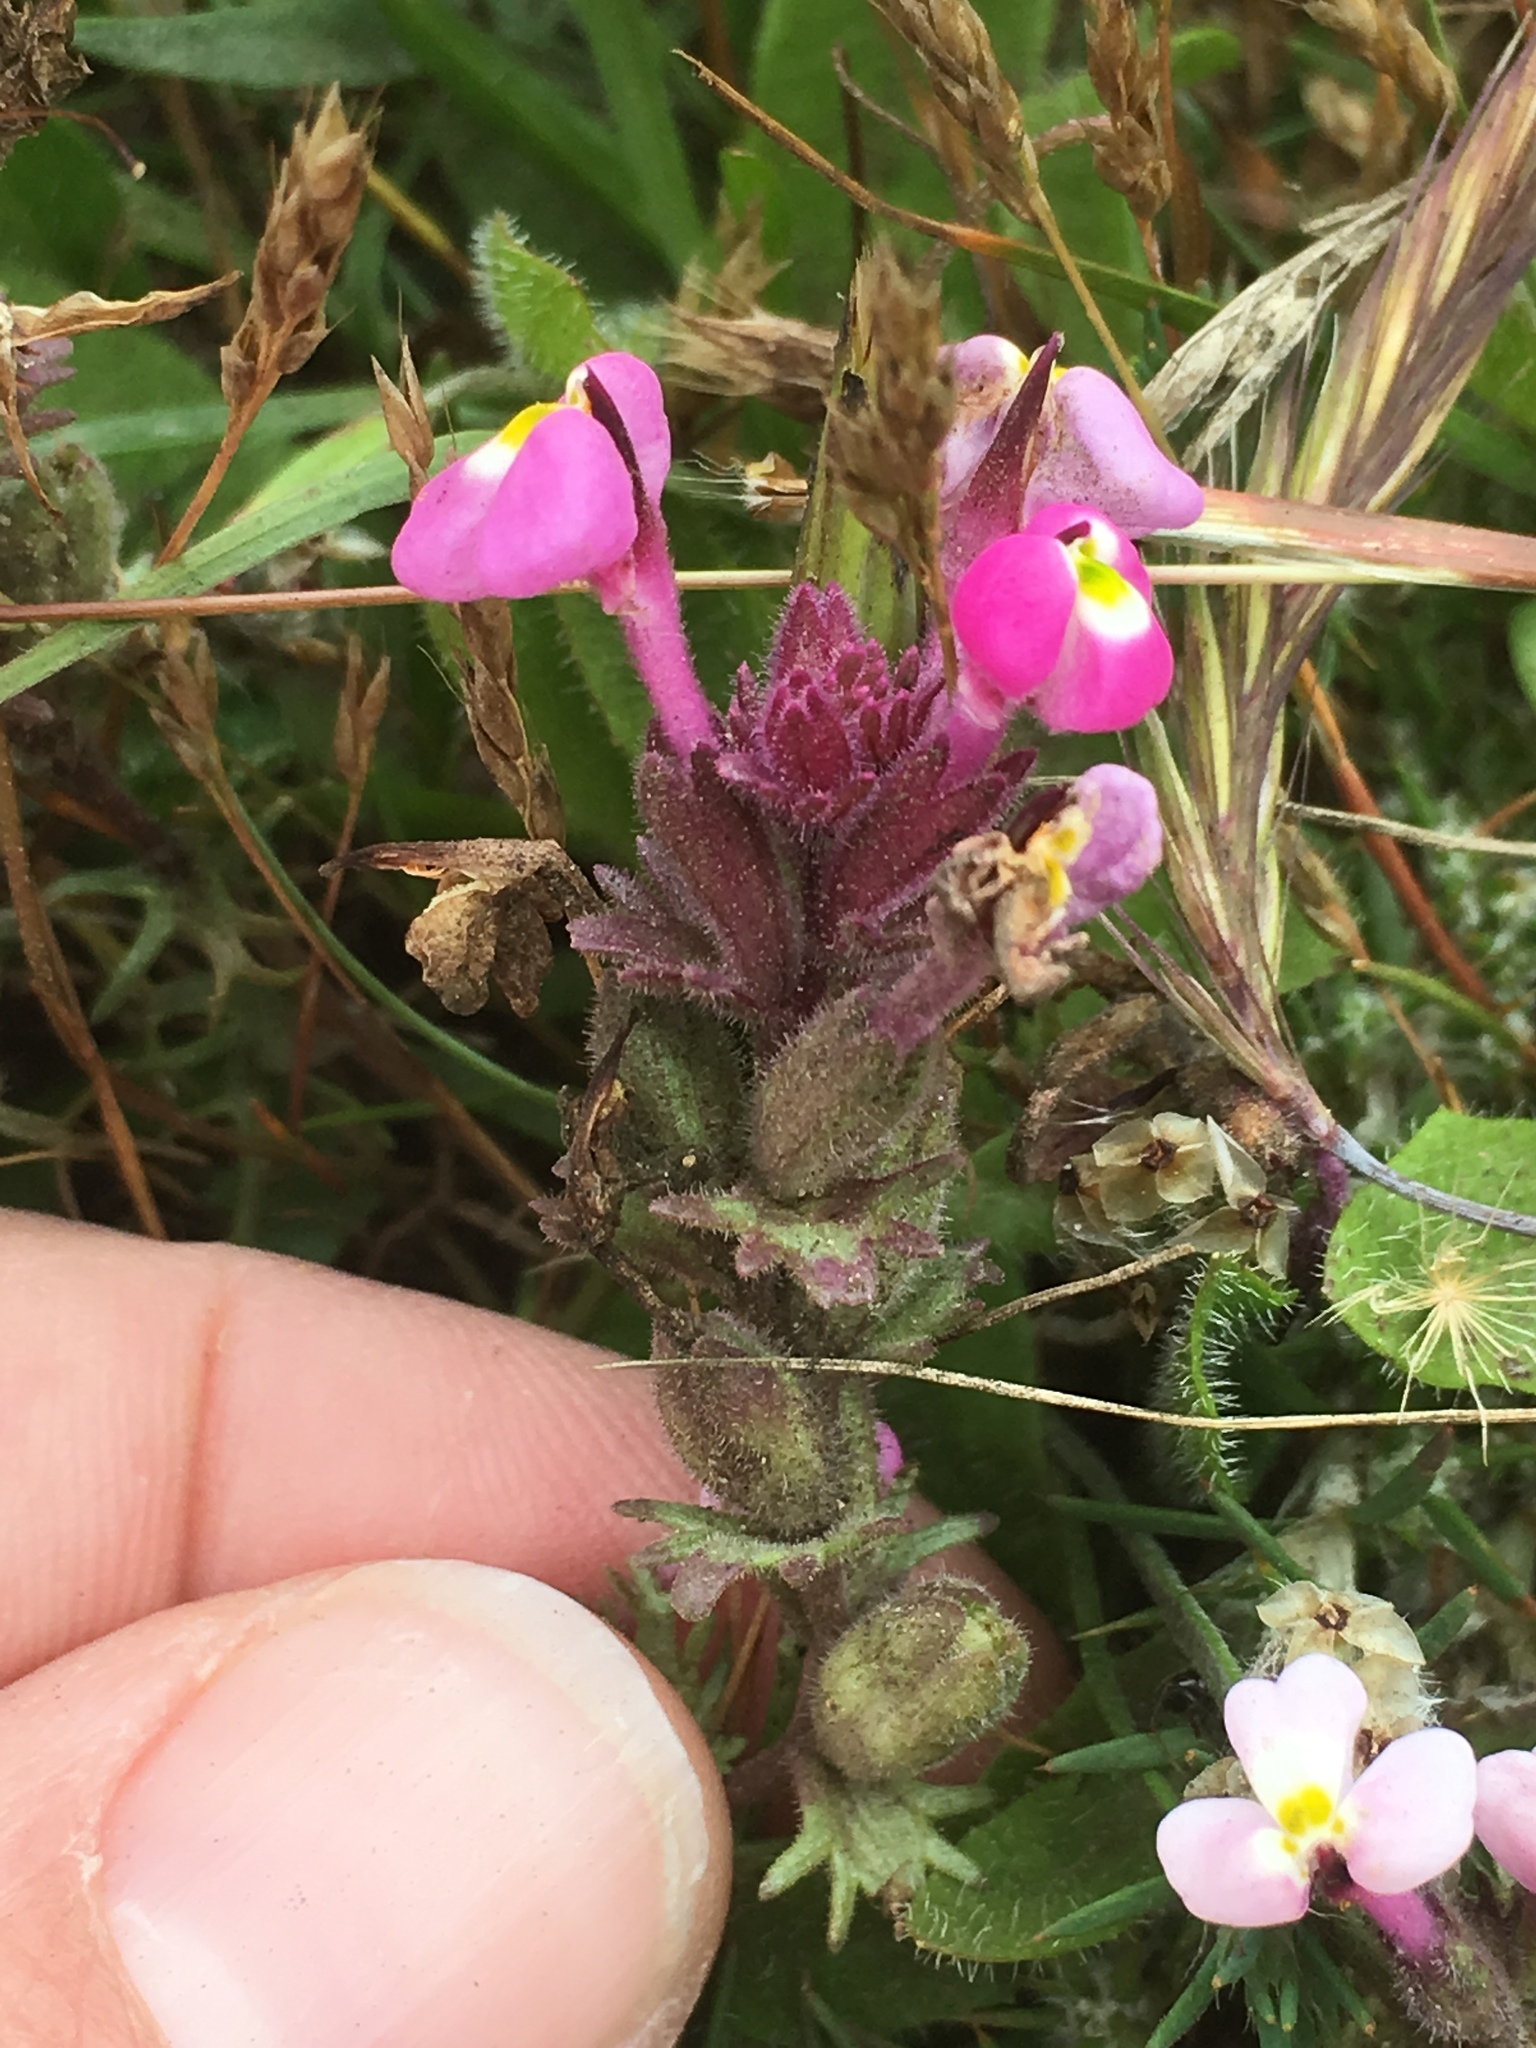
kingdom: Plantae
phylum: Tracheophyta
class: Magnoliopsida
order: Lamiales
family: Orobanchaceae
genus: Triphysaria
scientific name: Triphysaria eriantha
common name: Johnny-tuck
